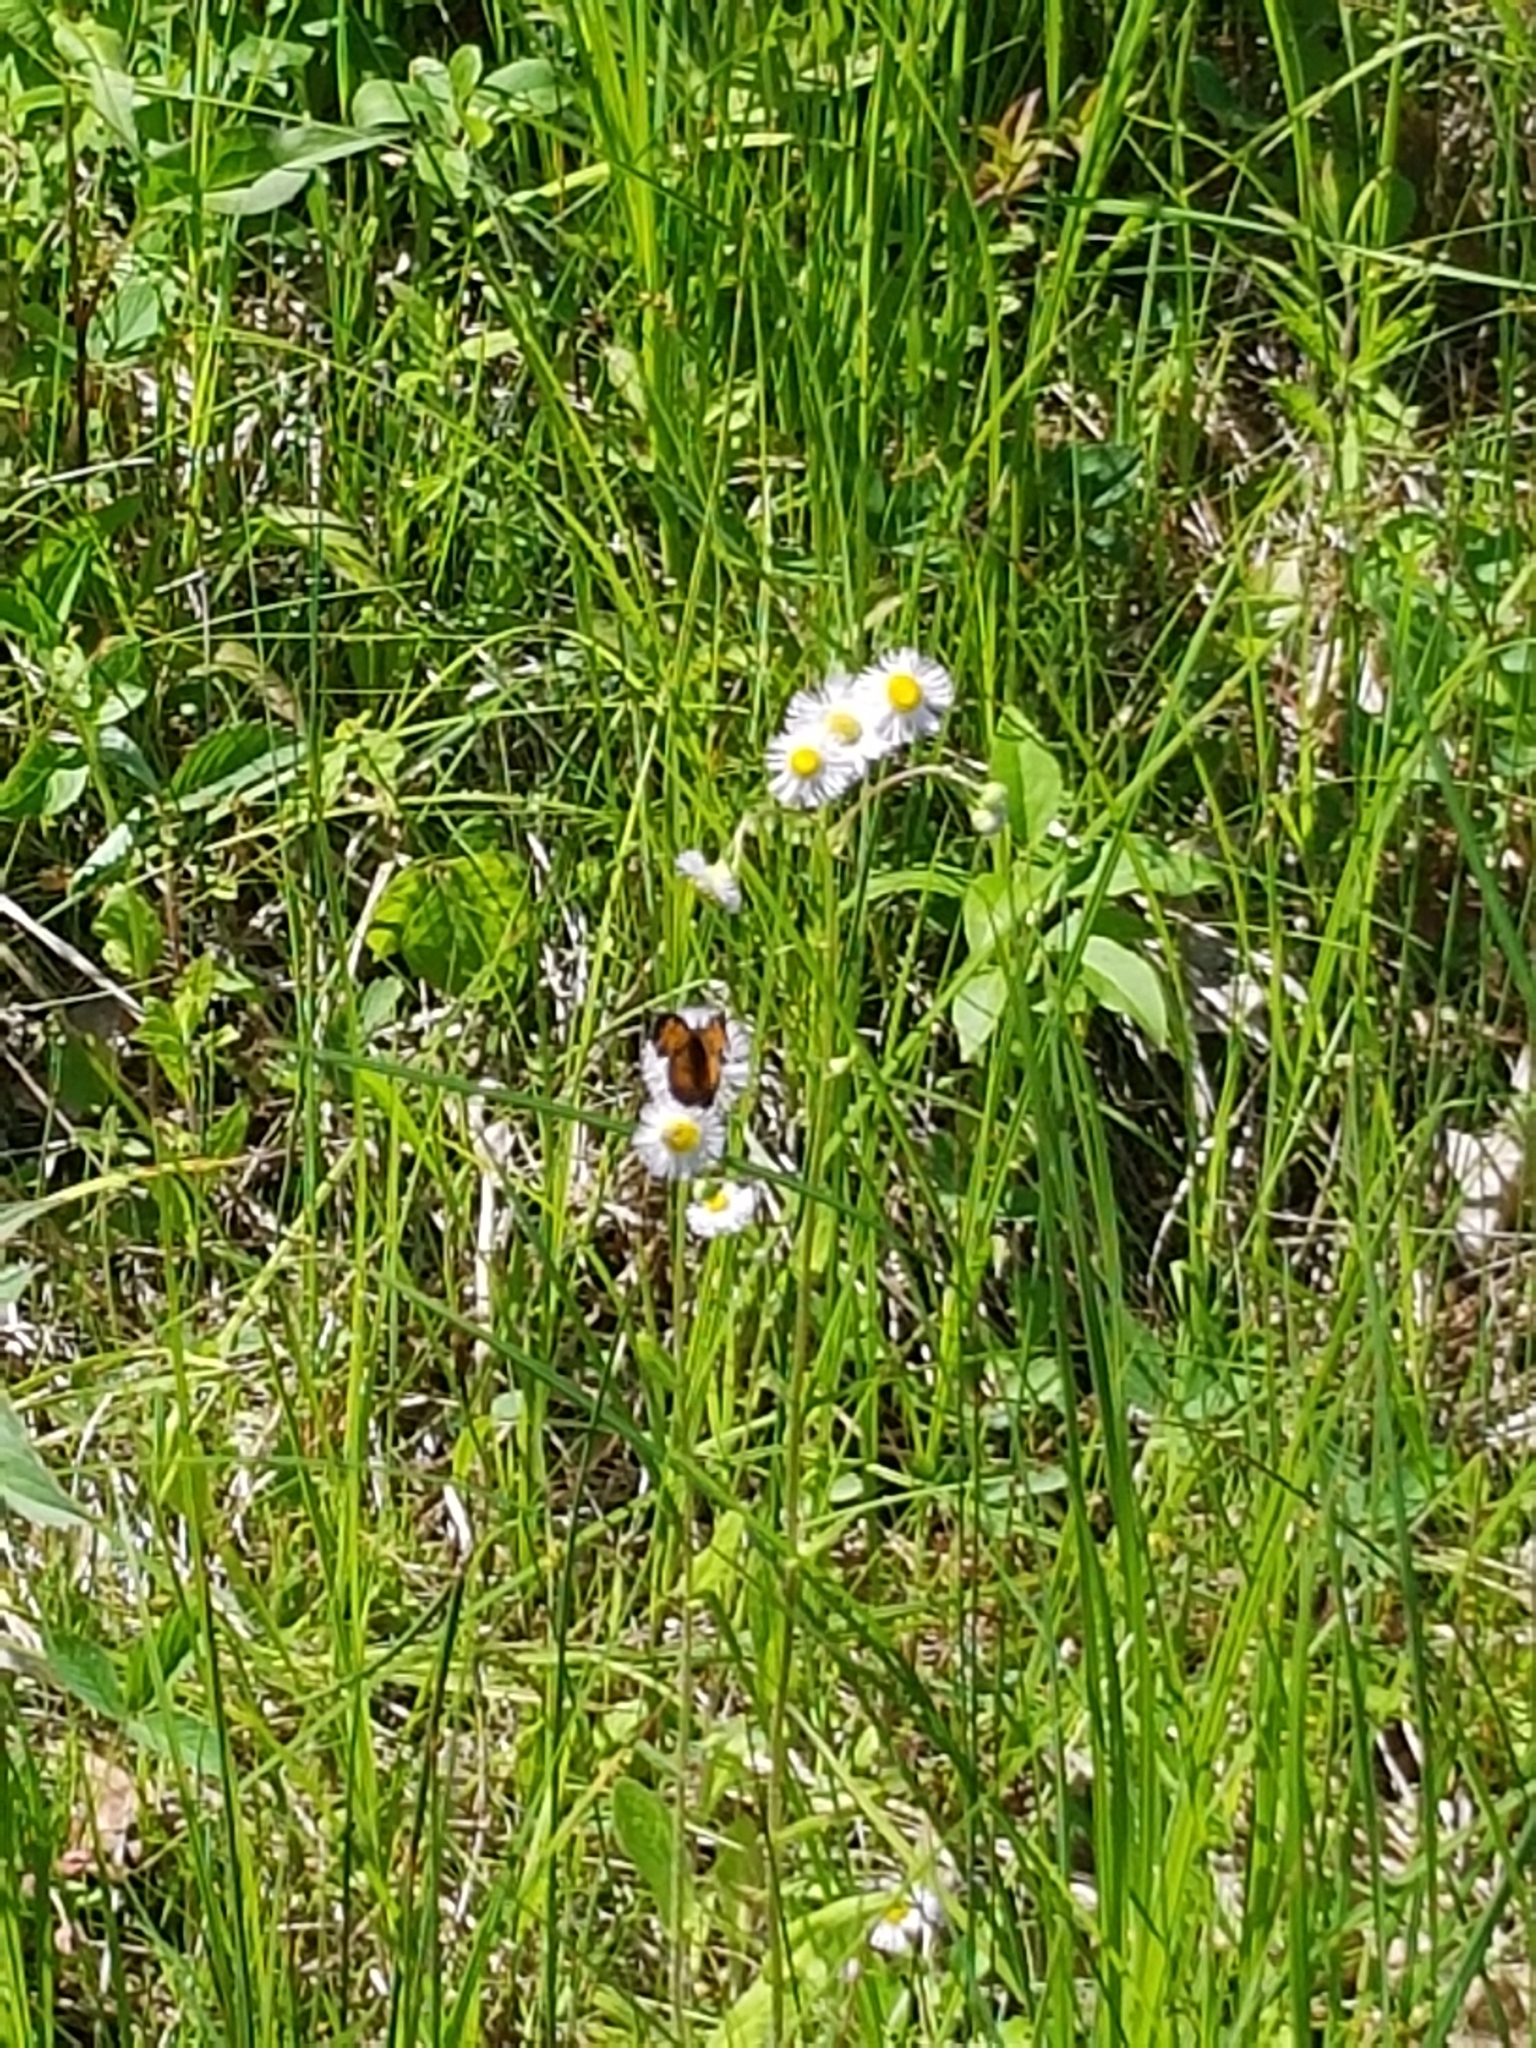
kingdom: Plantae
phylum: Tracheophyta
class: Magnoliopsida
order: Asterales
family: Asteraceae
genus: Erigeron
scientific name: Erigeron philadelphicus
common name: Robin's-plantain
